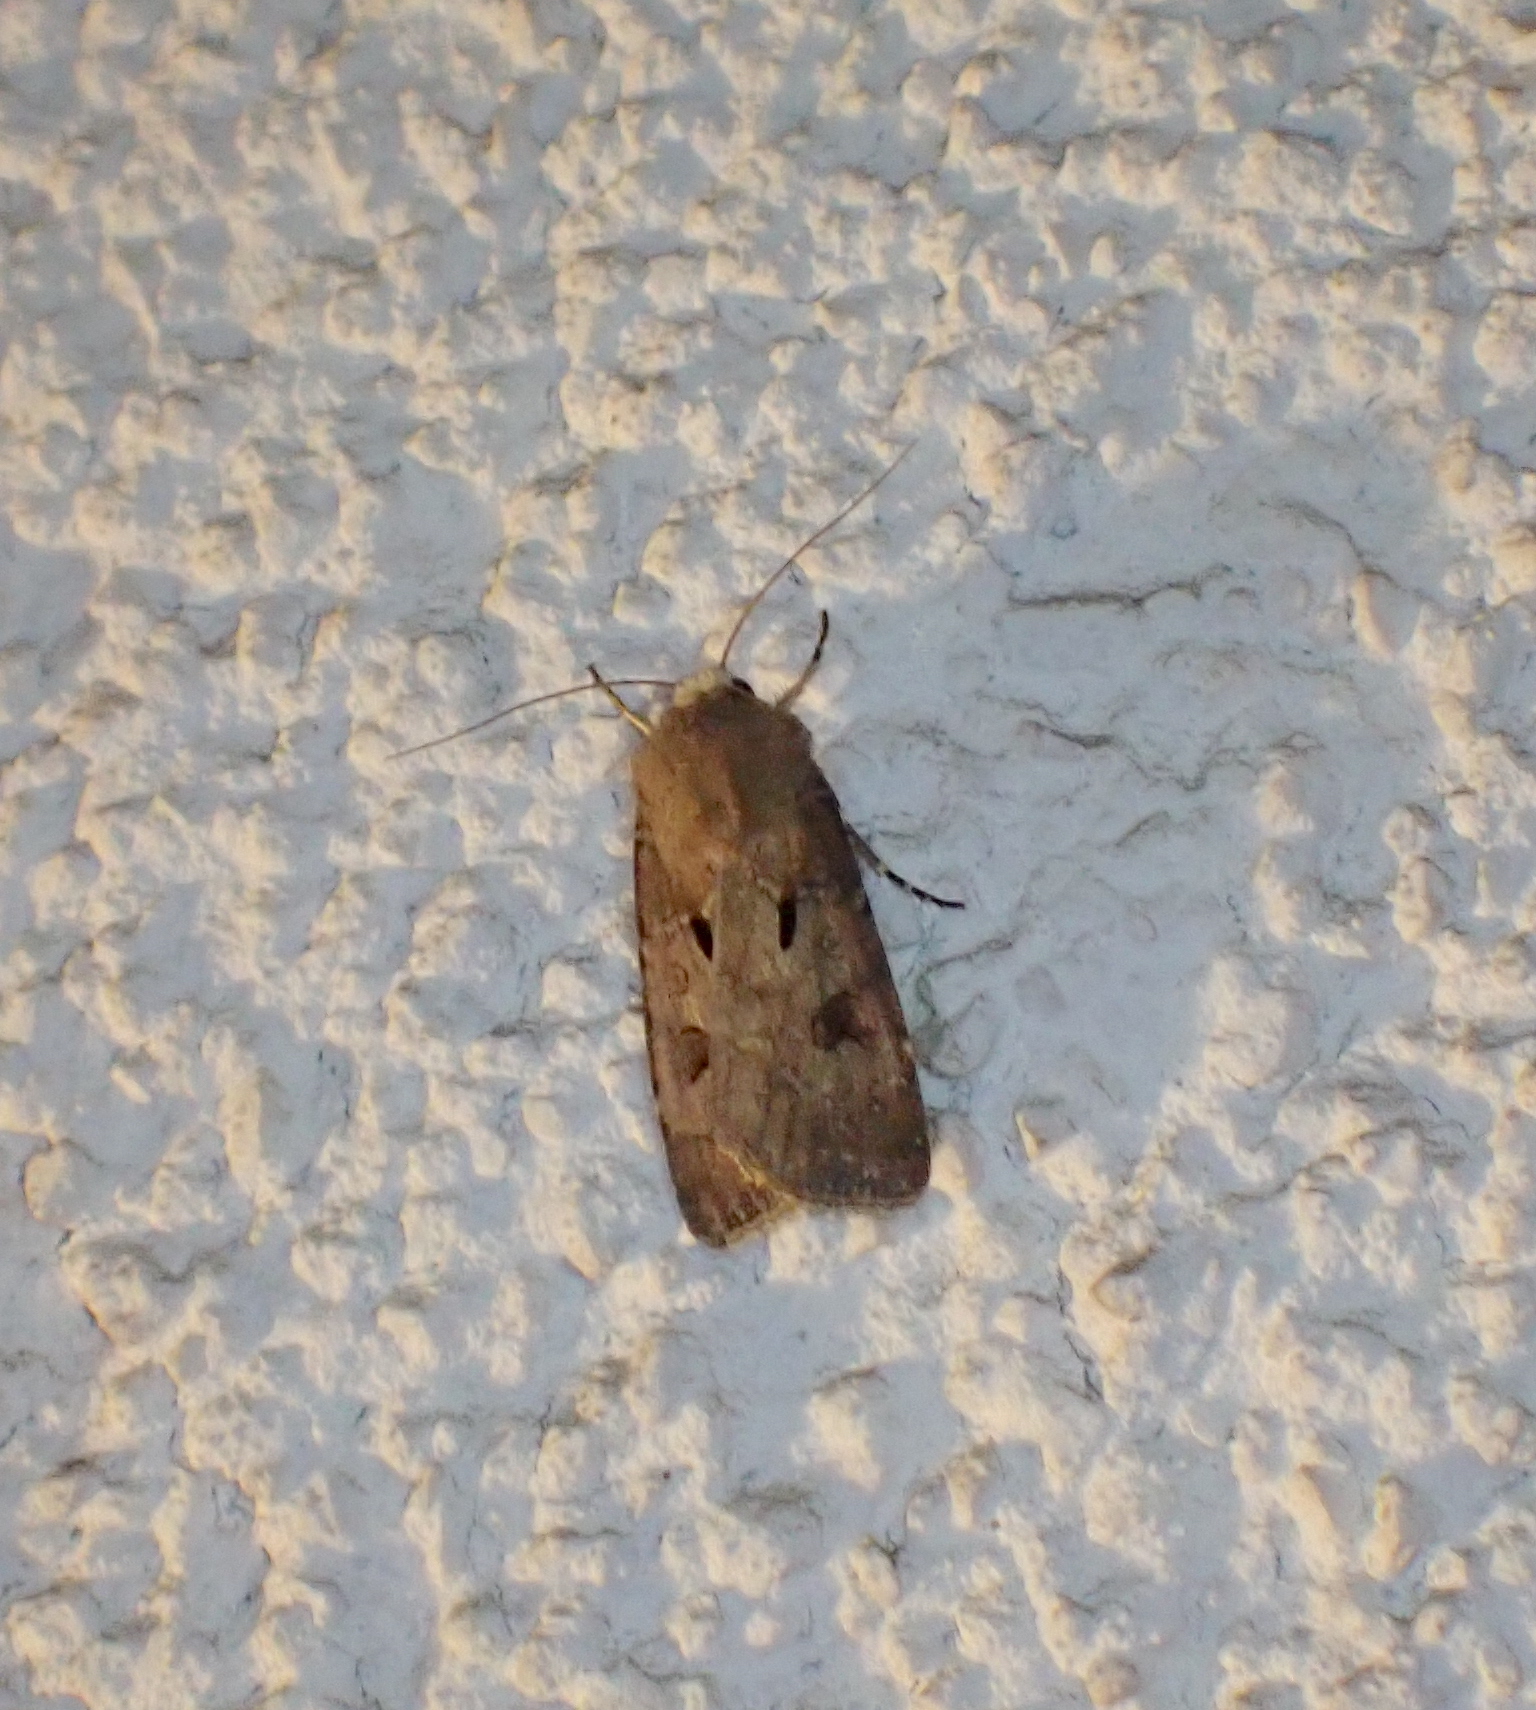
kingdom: Animalia
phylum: Arthropoda
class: Insecta
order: Lepidoptera
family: Noctuidae
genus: Agrotis
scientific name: Agrotis exclamationis
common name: Heart and dart
